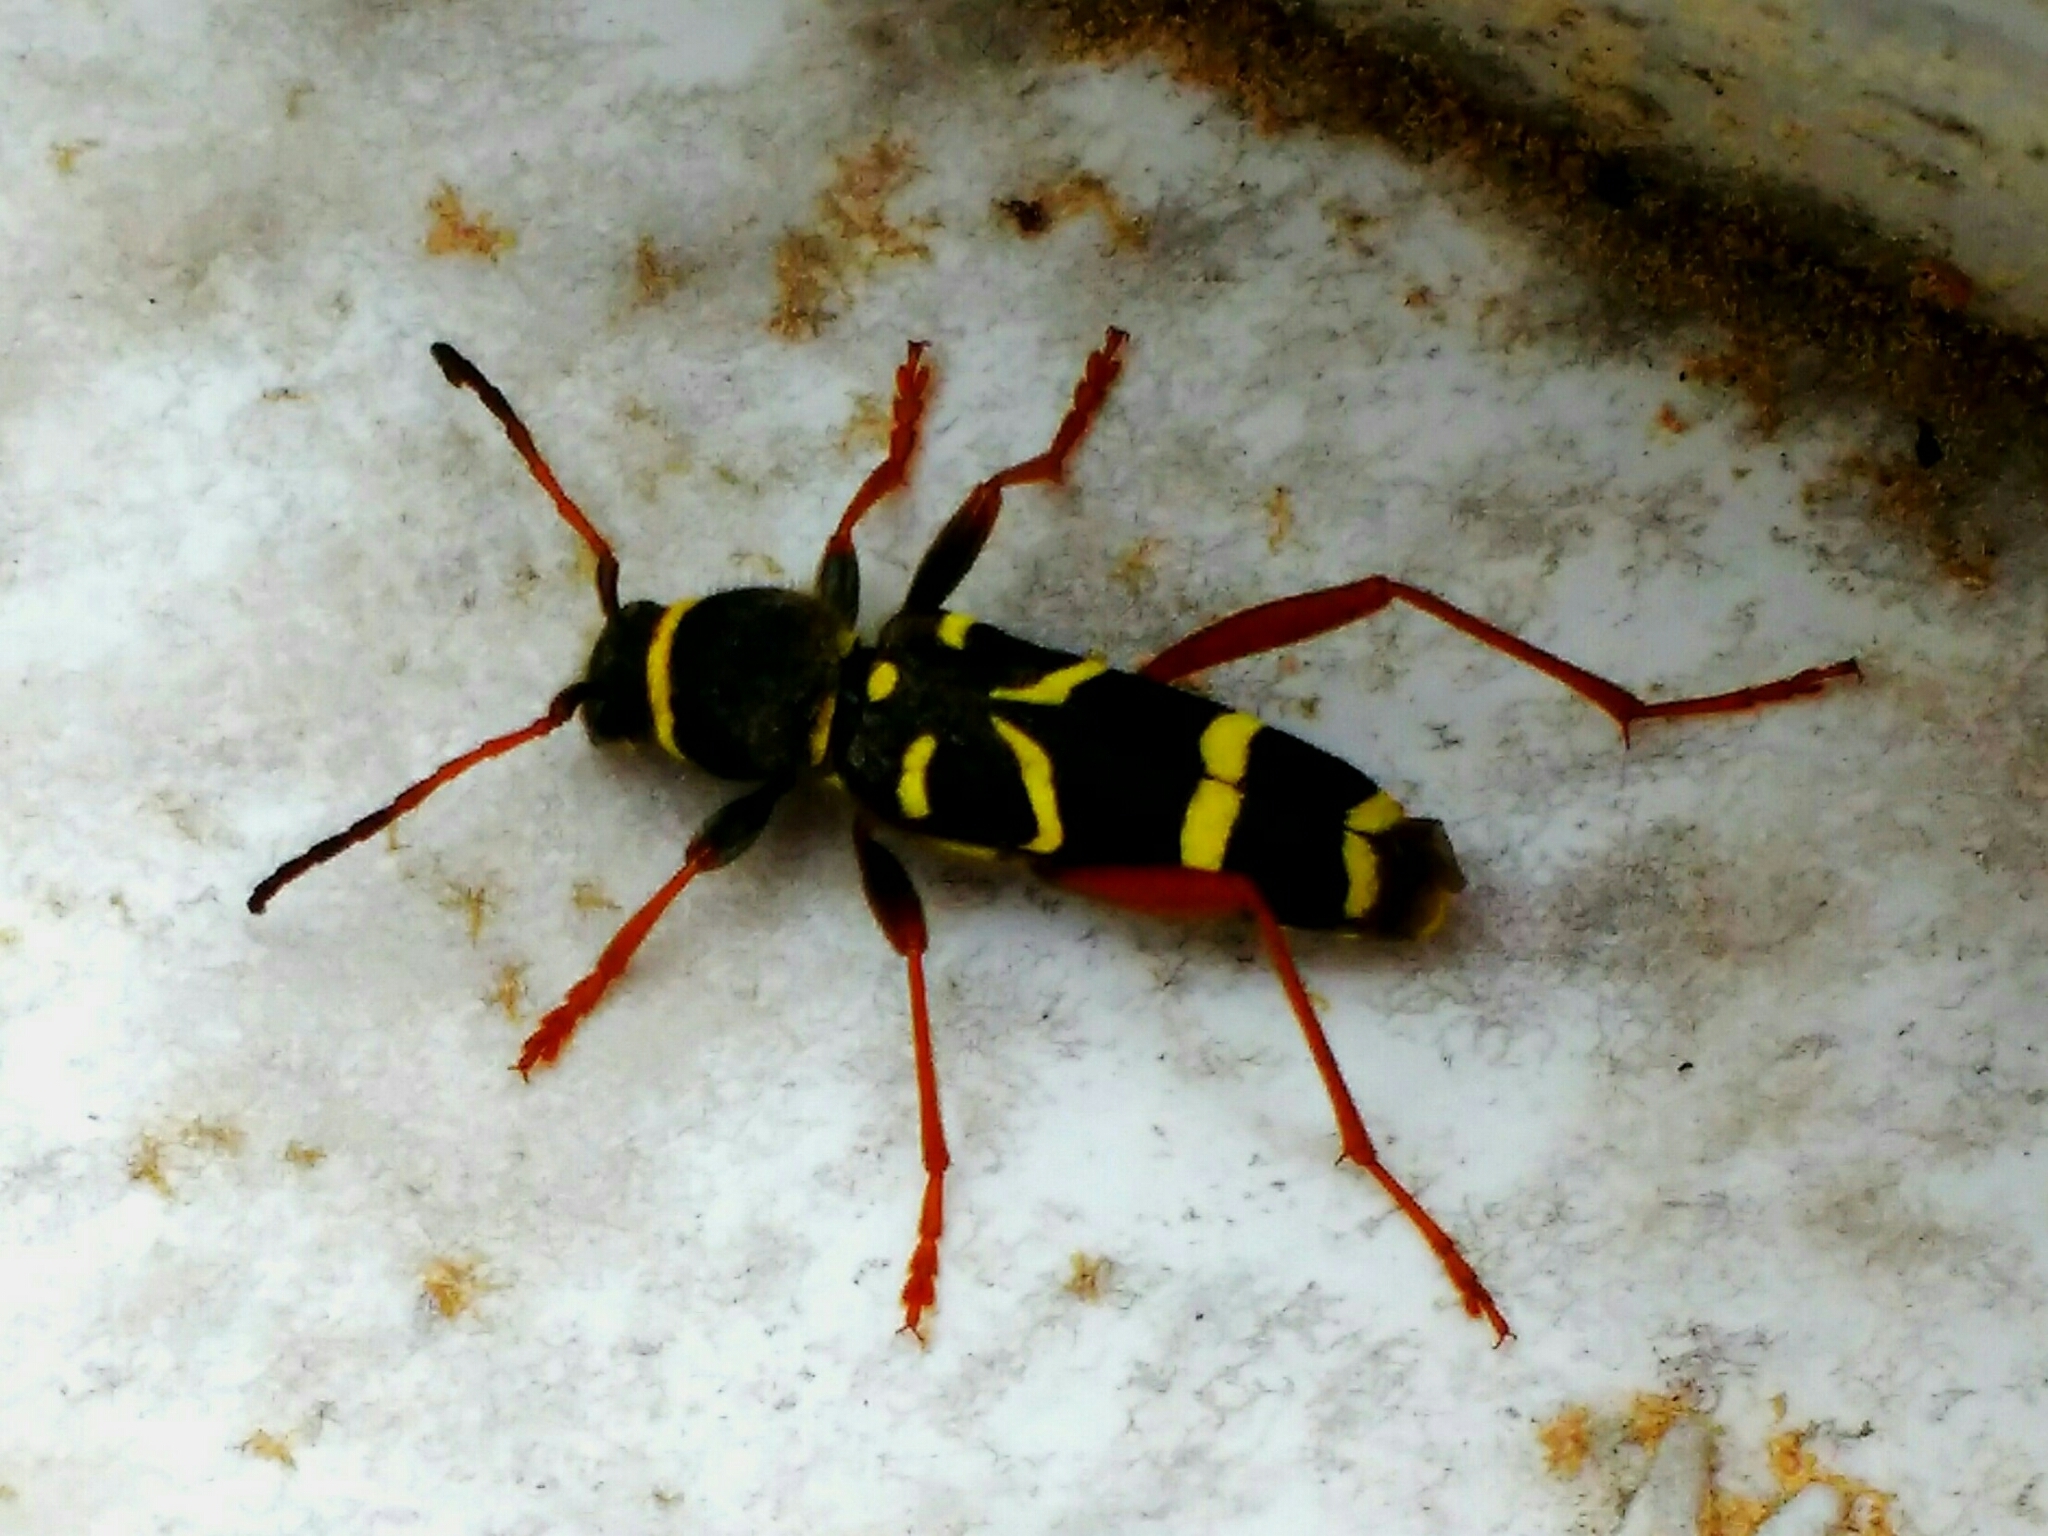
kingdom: Animalia
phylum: Arthropoda
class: Insecta
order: Coleoptera
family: Cerambycidae
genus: Clytus
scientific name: Clytus arietis
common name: Wasp beetle
